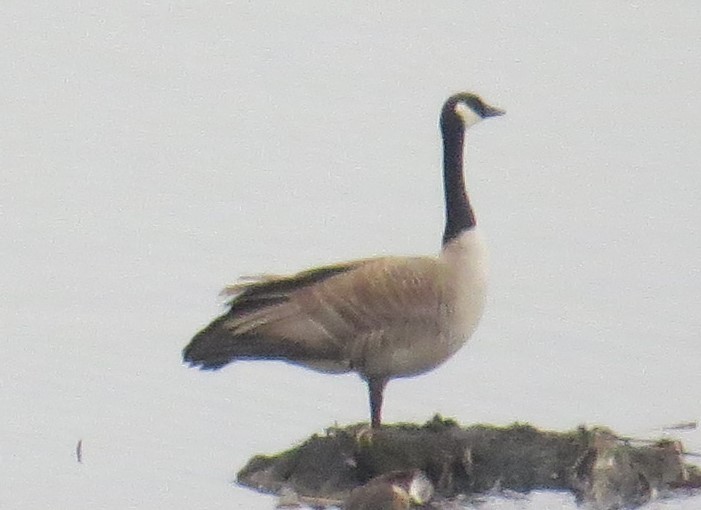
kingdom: Animalia
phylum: Chordata
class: Aves
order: Anseriformes
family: Anatidae
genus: Branta
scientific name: Branta canadensis
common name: Canada goose
